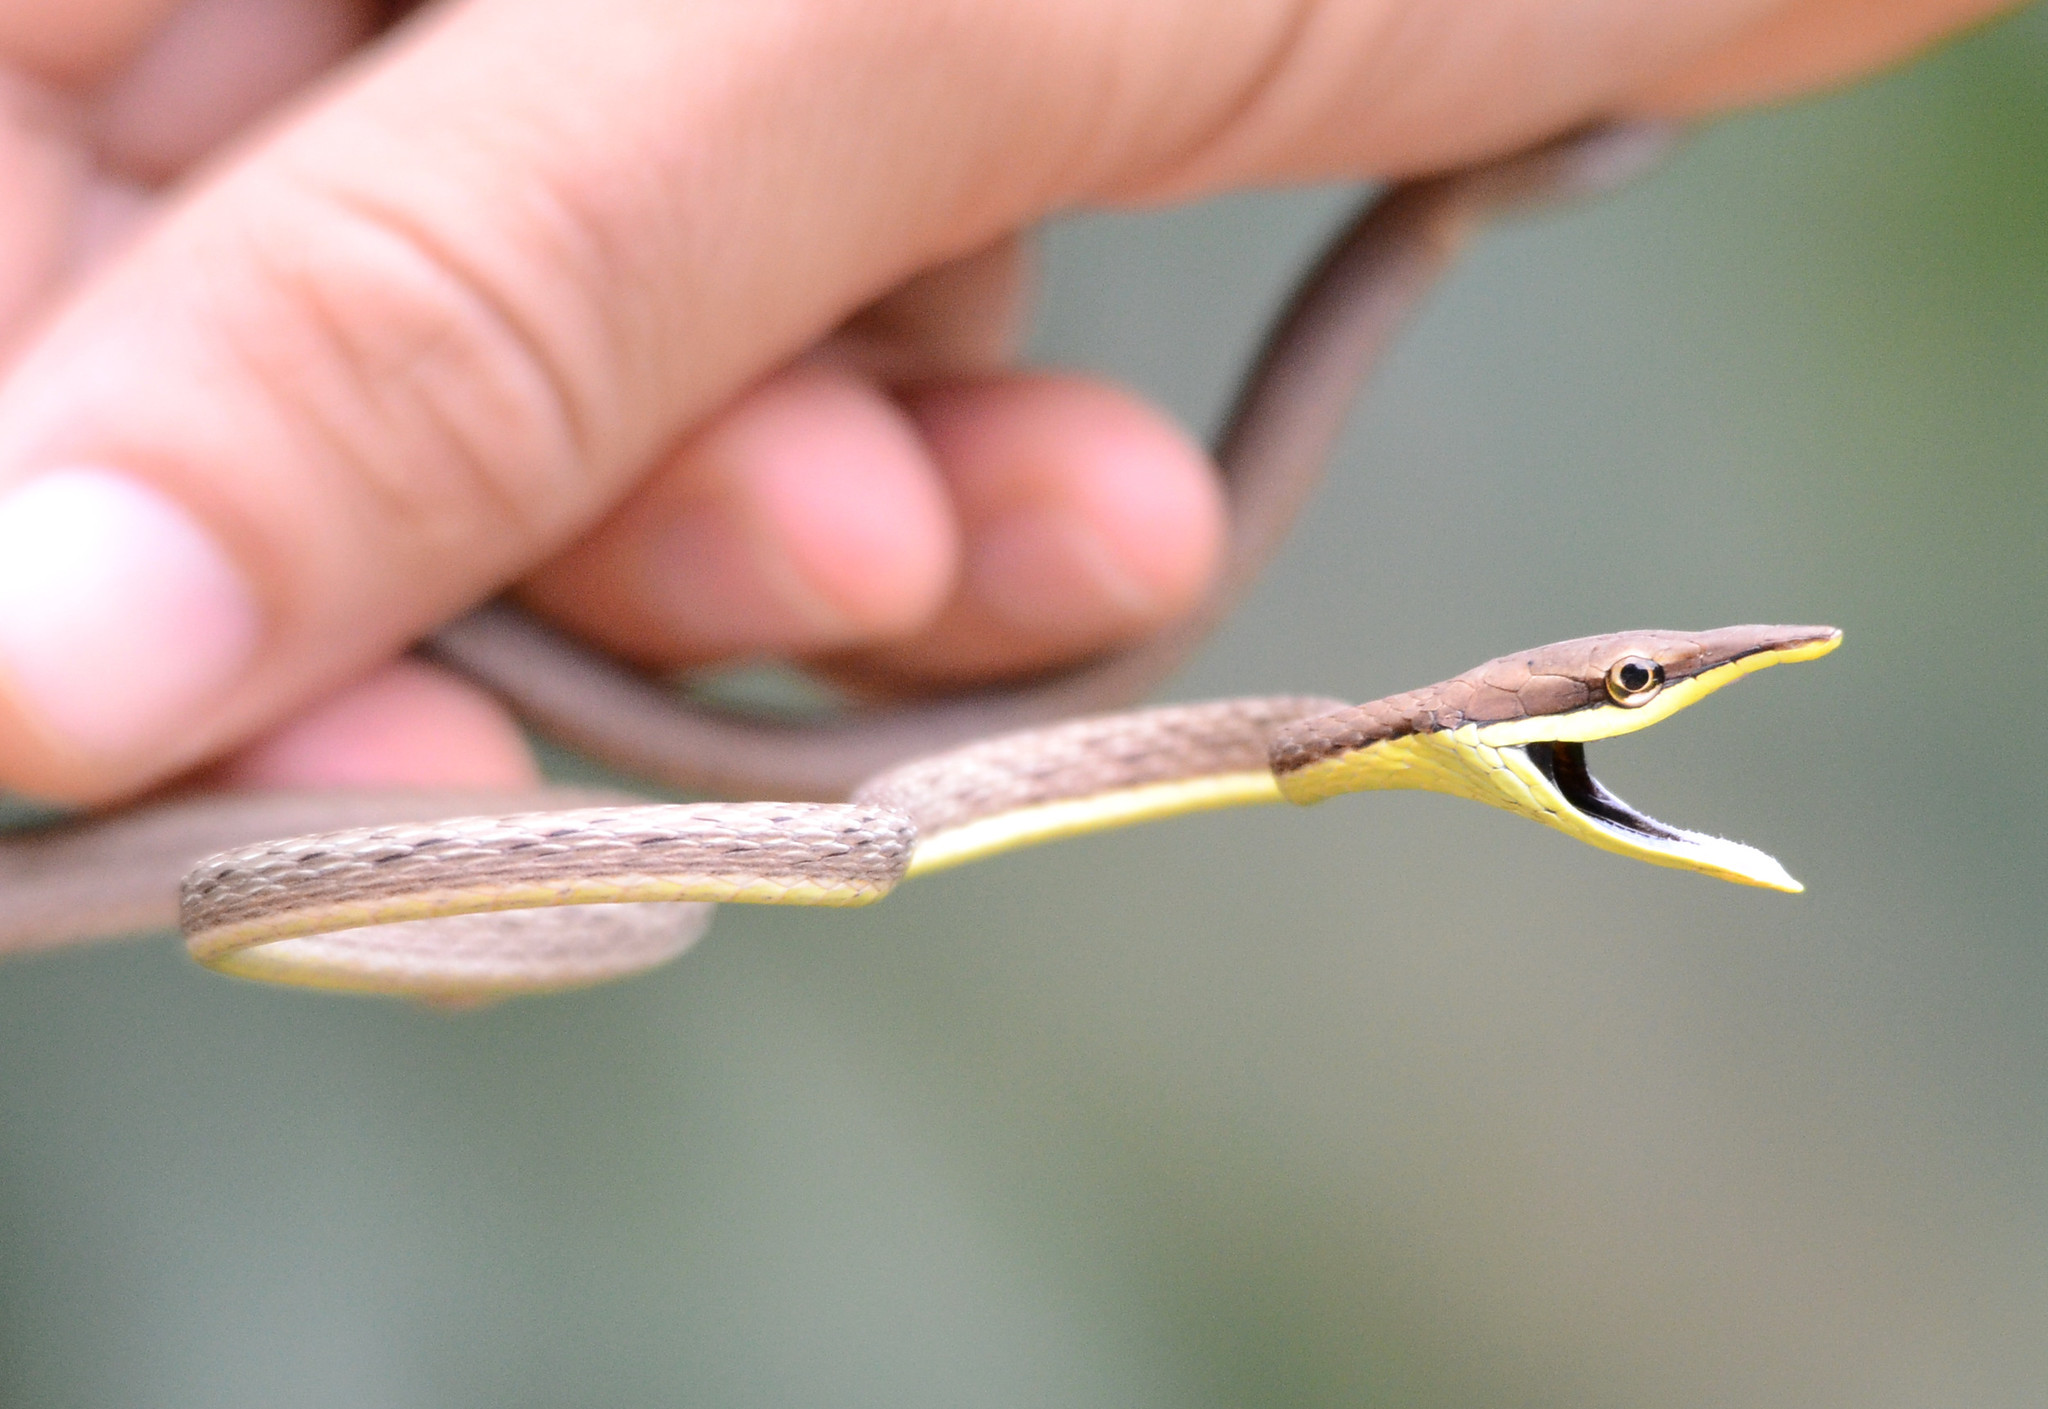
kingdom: Animalia
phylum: Chordata
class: Squamata
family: Colubridae
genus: Oxybelis
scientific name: Oxybelis microphthalmus
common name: Thrornscrub vine snake
